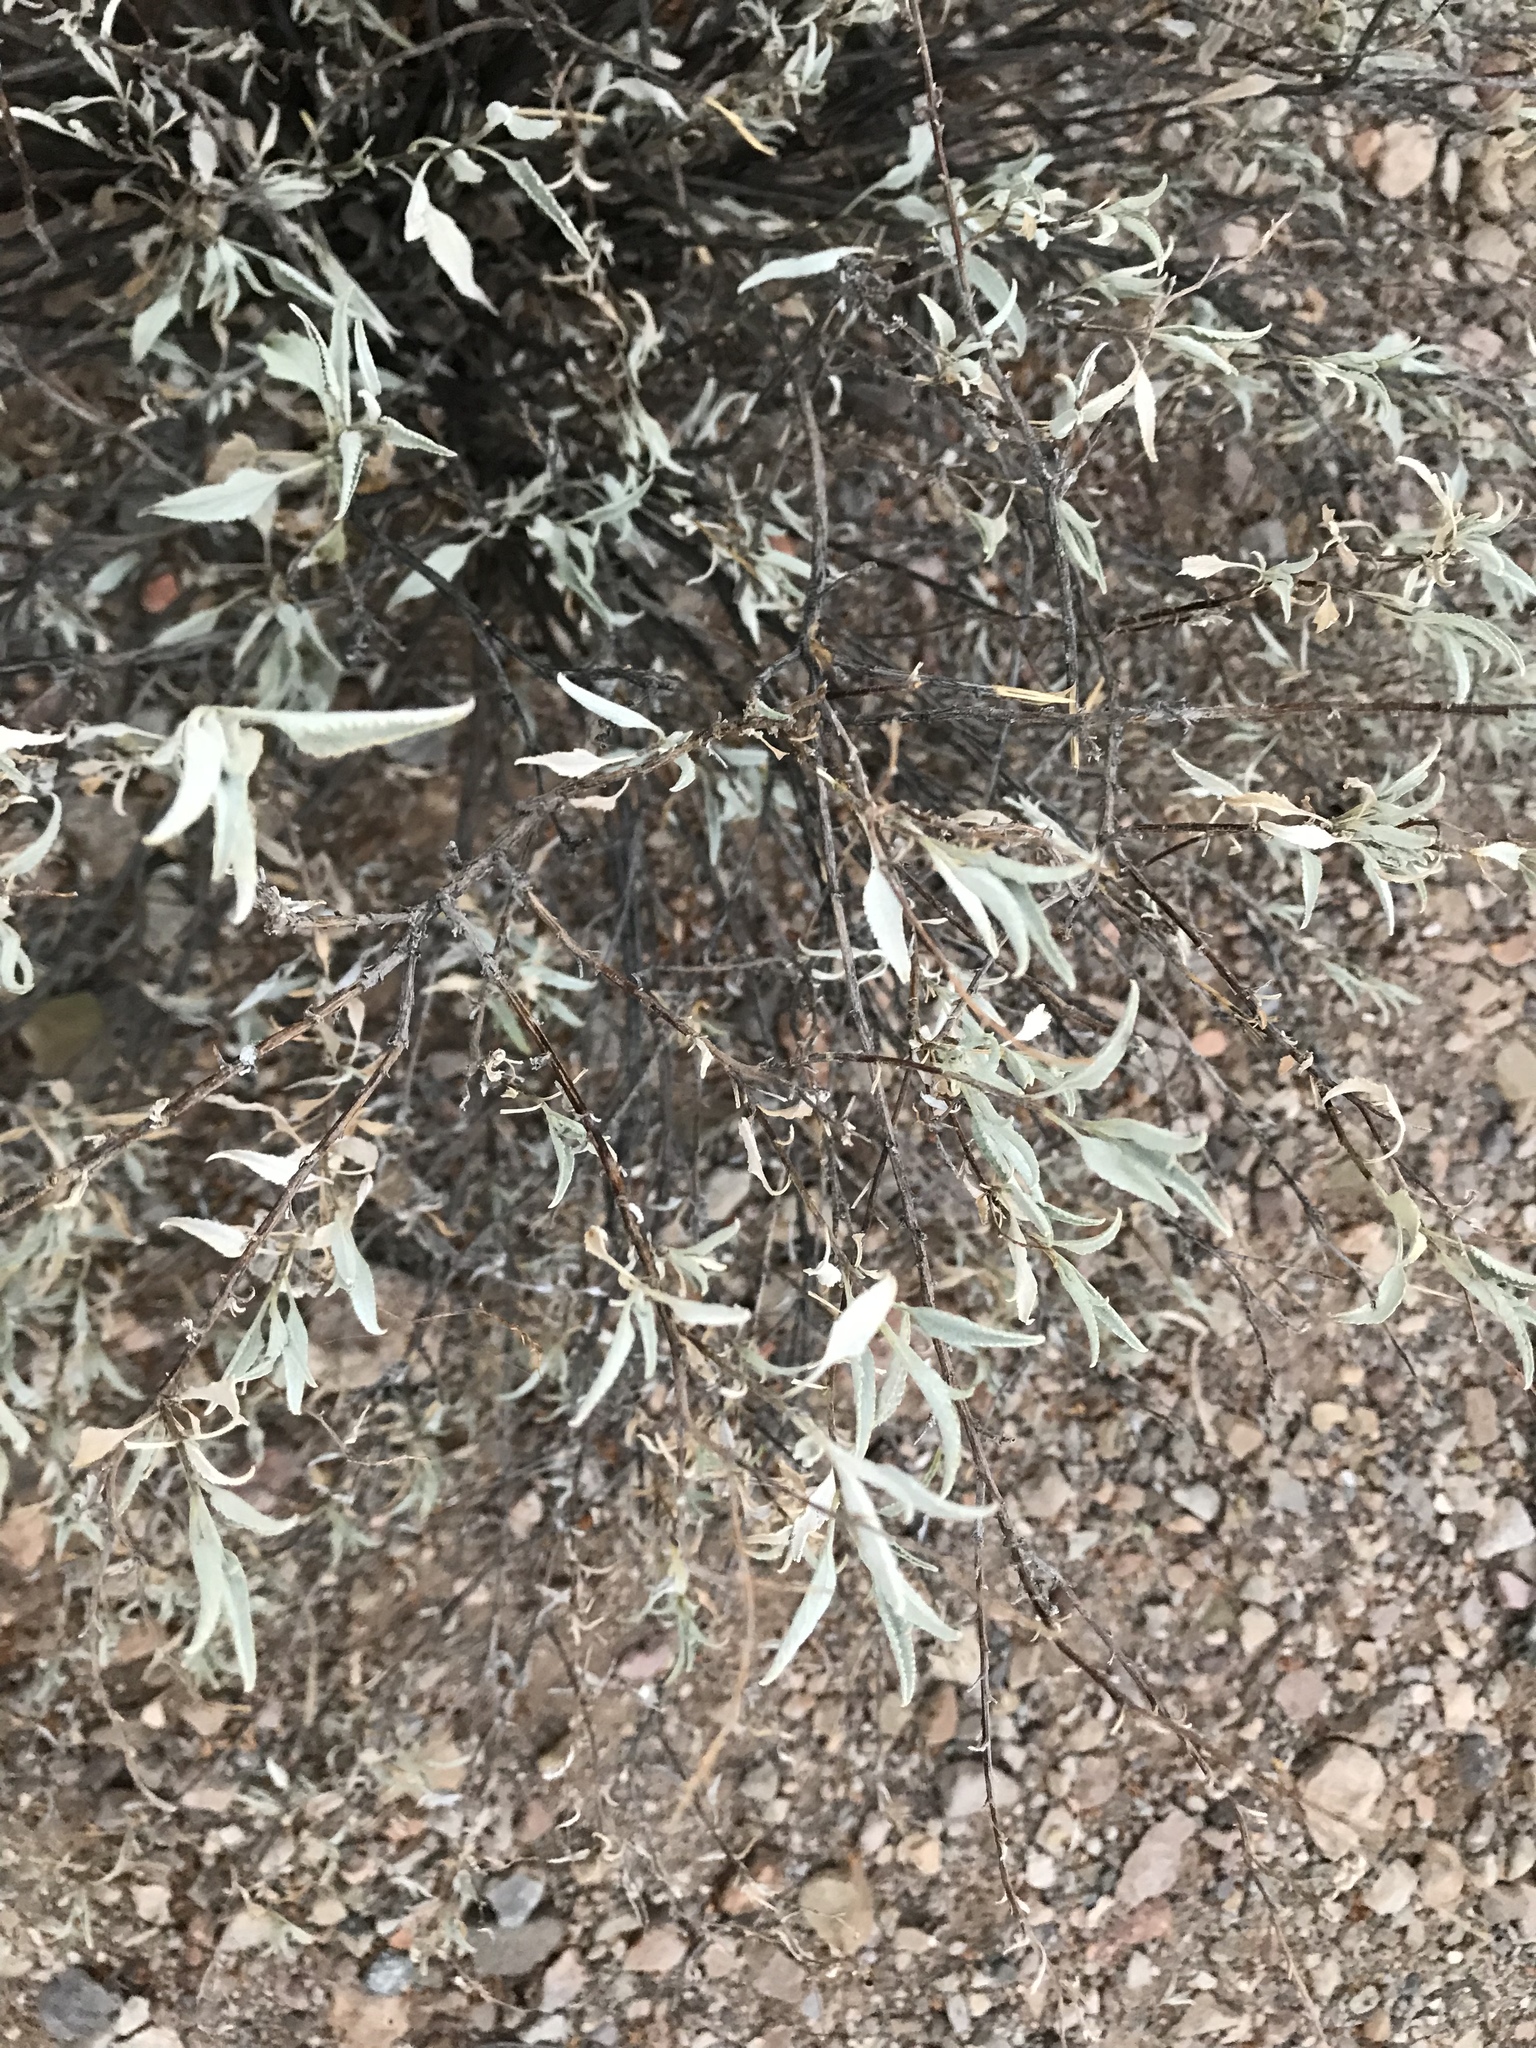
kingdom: Plantae
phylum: Tracheophyta
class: Magnoliopsida
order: Asterales
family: Asteraceae
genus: Ambrosia
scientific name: Ambrosia deltoidea
